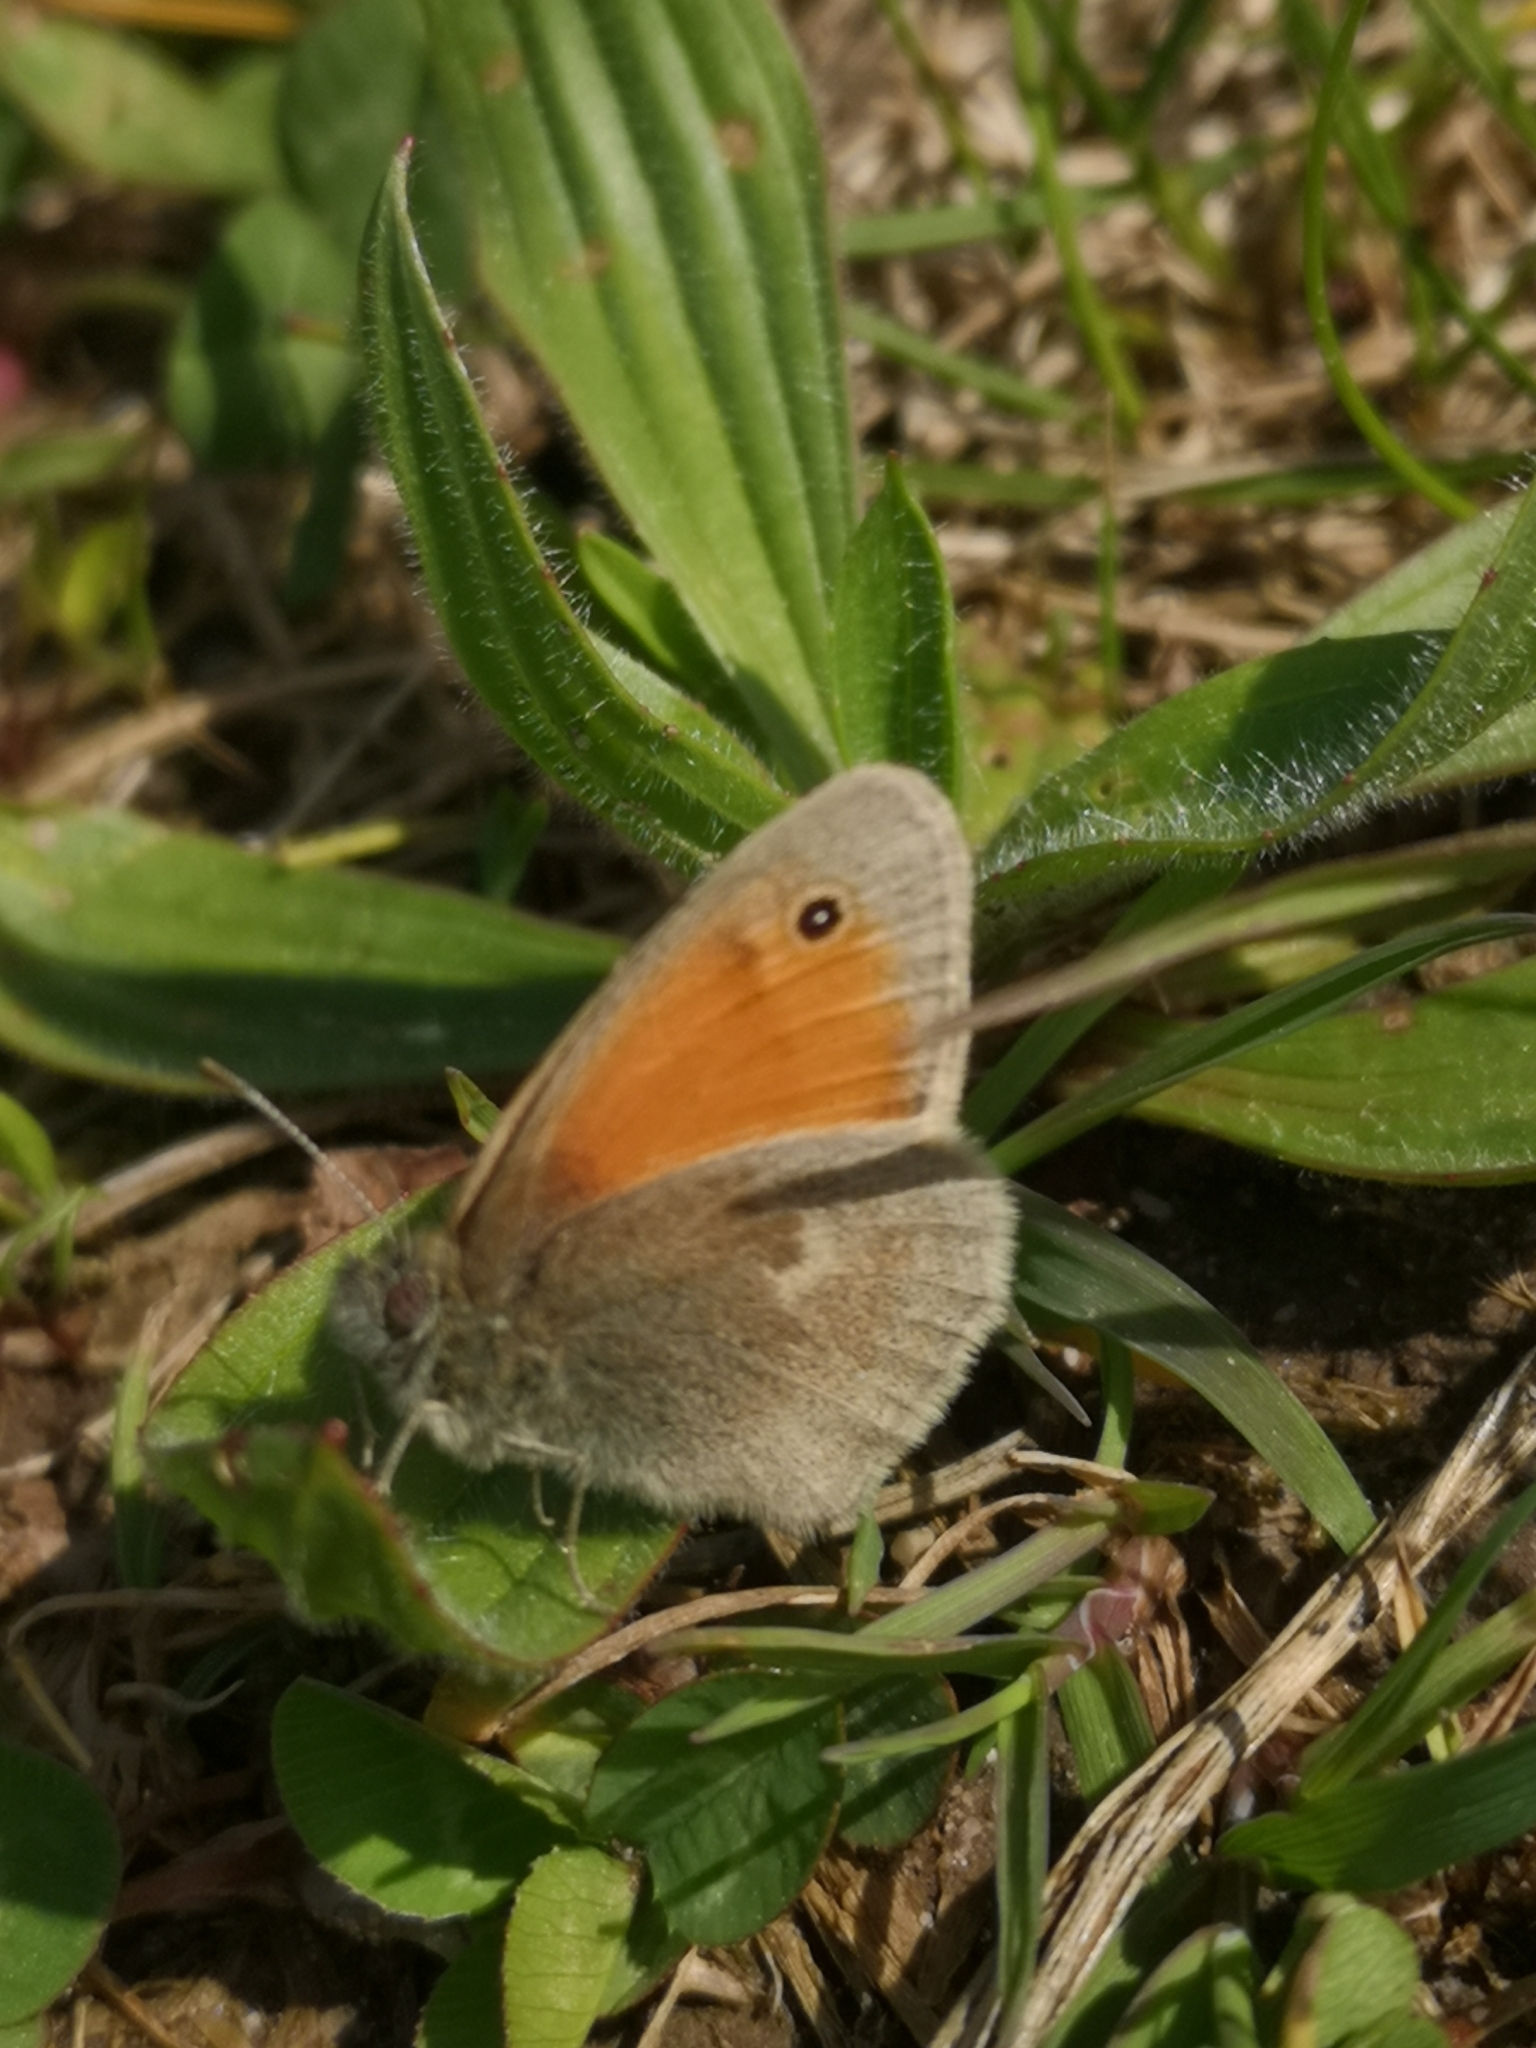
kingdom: Animalia
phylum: Arthropoda
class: Insecta
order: Lepidoptera
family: Nymphalidae
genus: Coenonympha
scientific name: Coenonympha pamphilus
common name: Small heath
